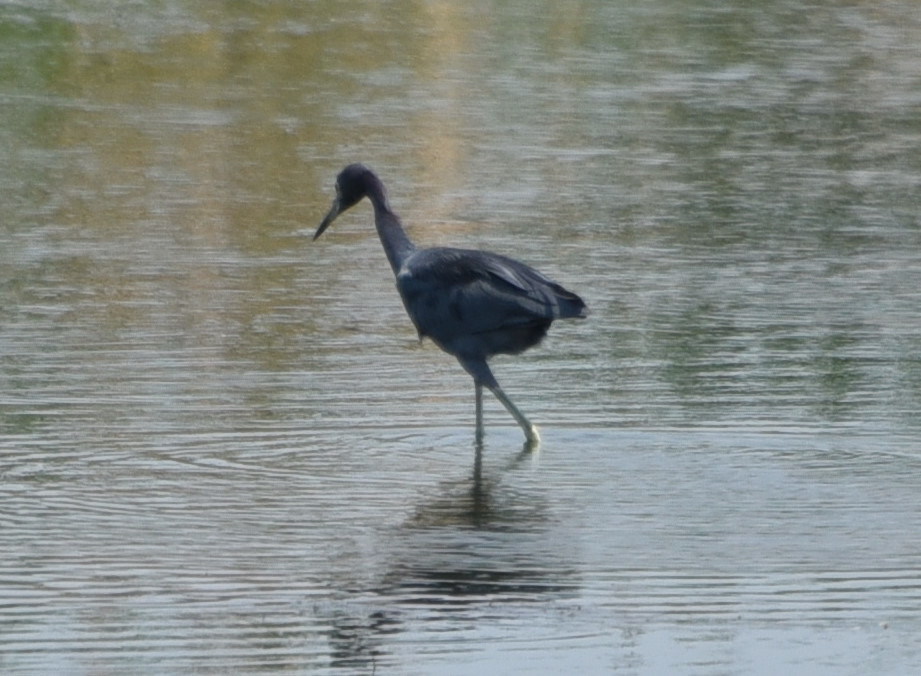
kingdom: Animalia
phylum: Chordata
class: Aves
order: Pelecaniformes
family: Ardeidae
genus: Egretta
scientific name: Egretta caerulea
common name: Little blue heron
